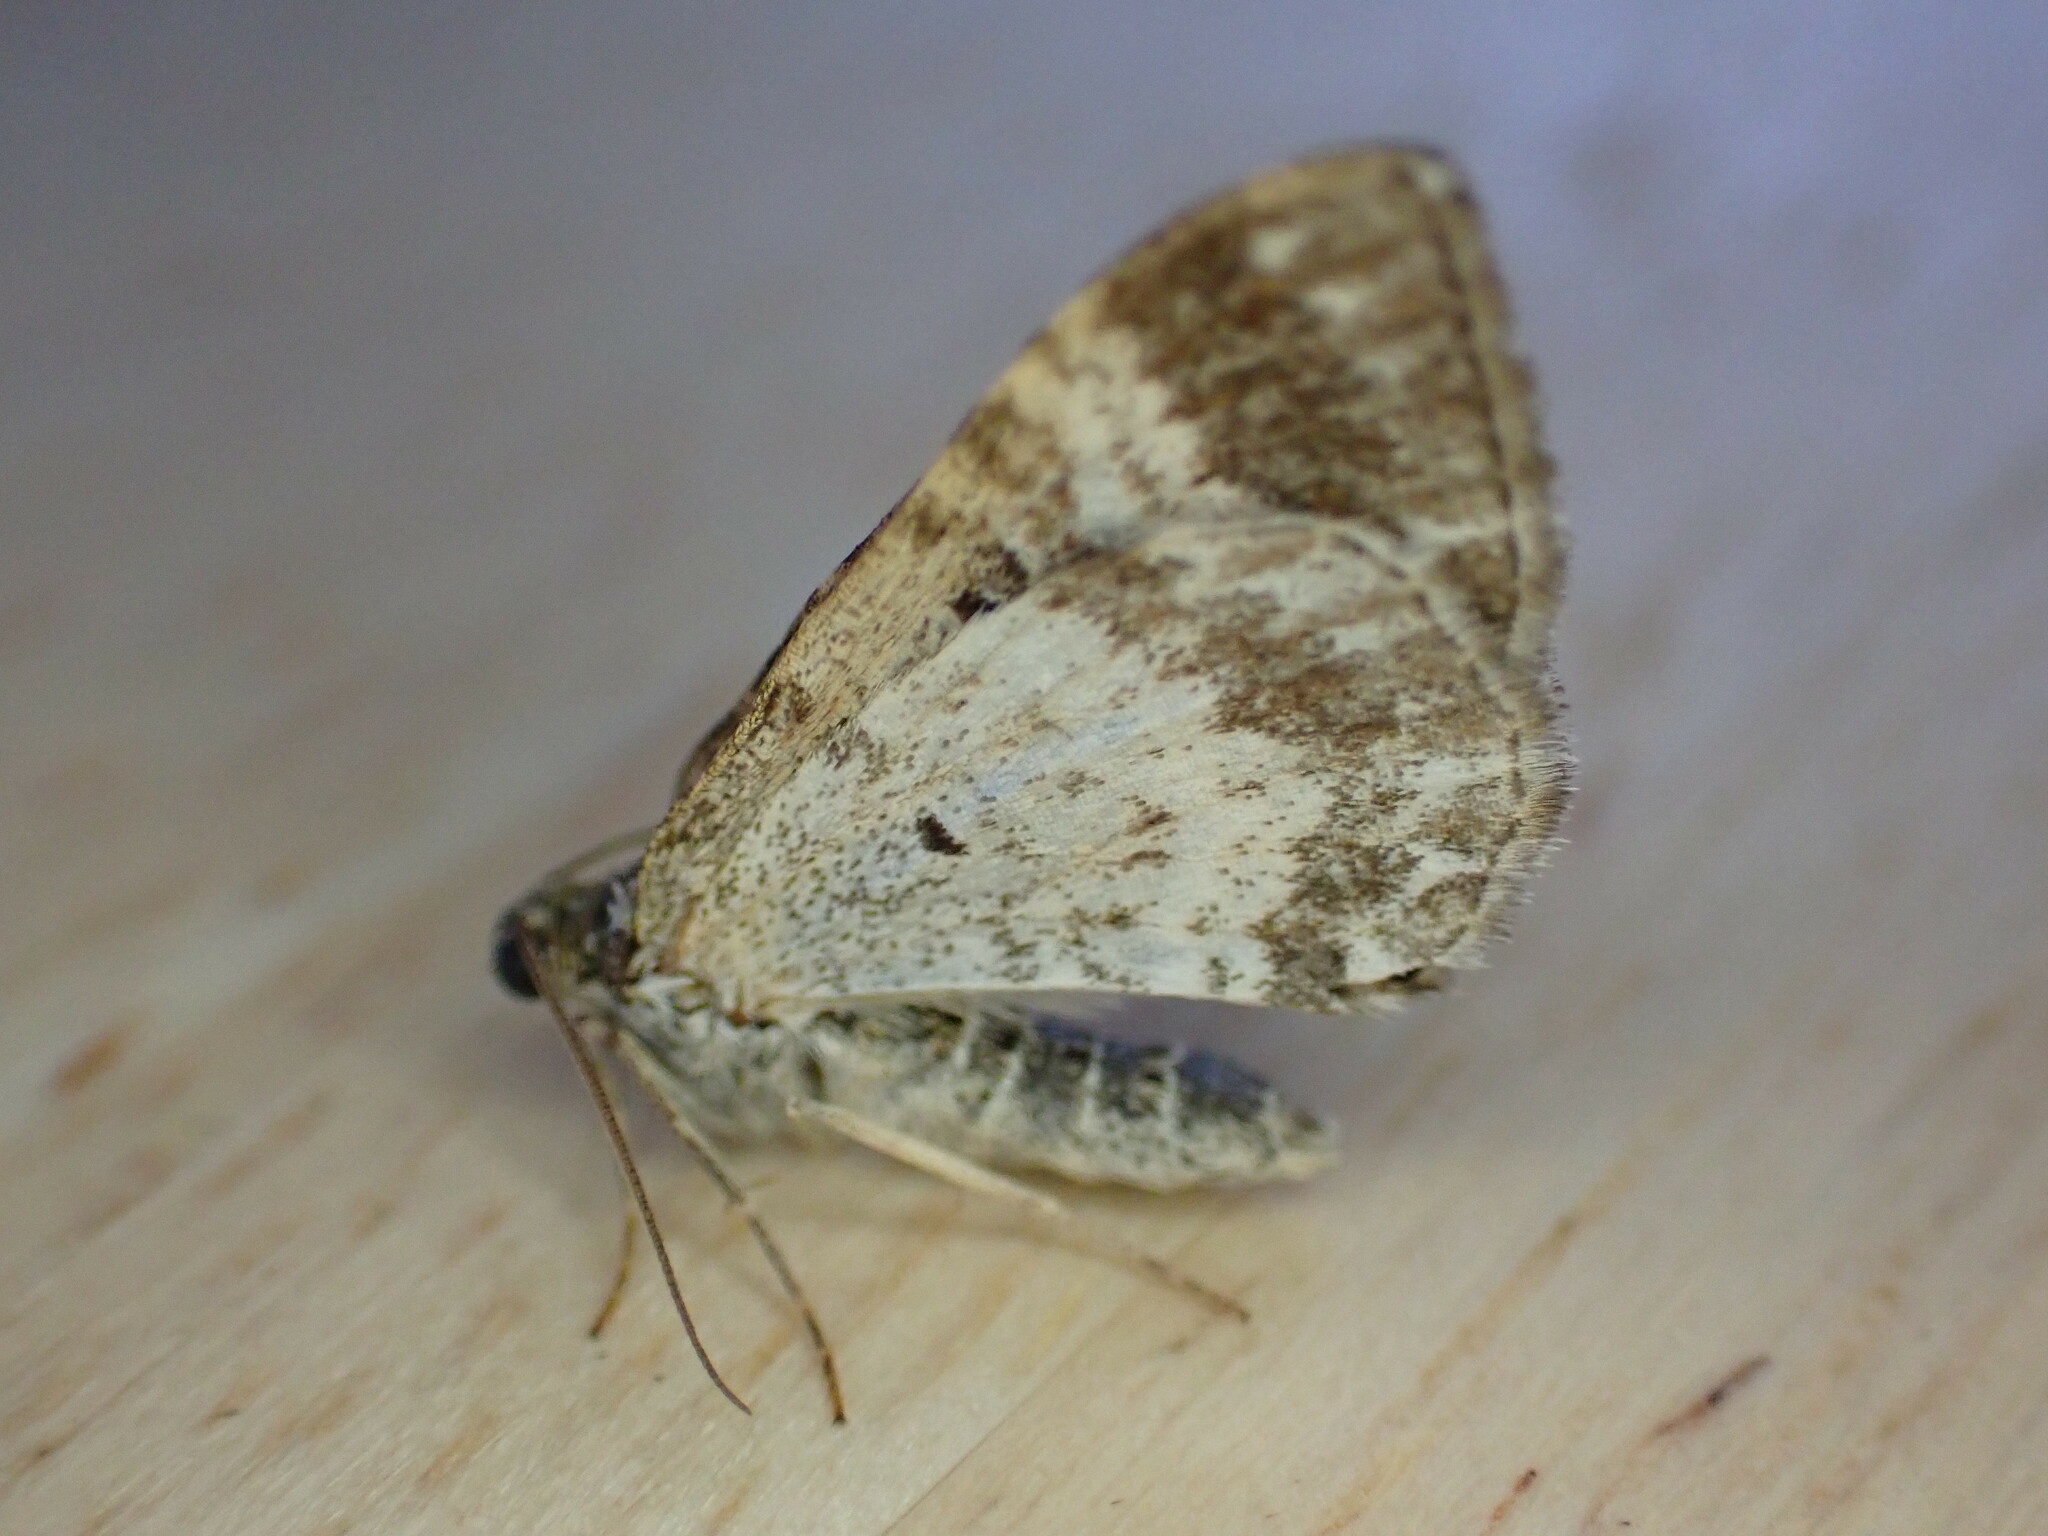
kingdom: Animalia
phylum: Arthropoda
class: Insecta
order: Lepidoptera
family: Geometridae
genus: Epirrhoe
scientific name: Epirrhoe alternata
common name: Common carpet
